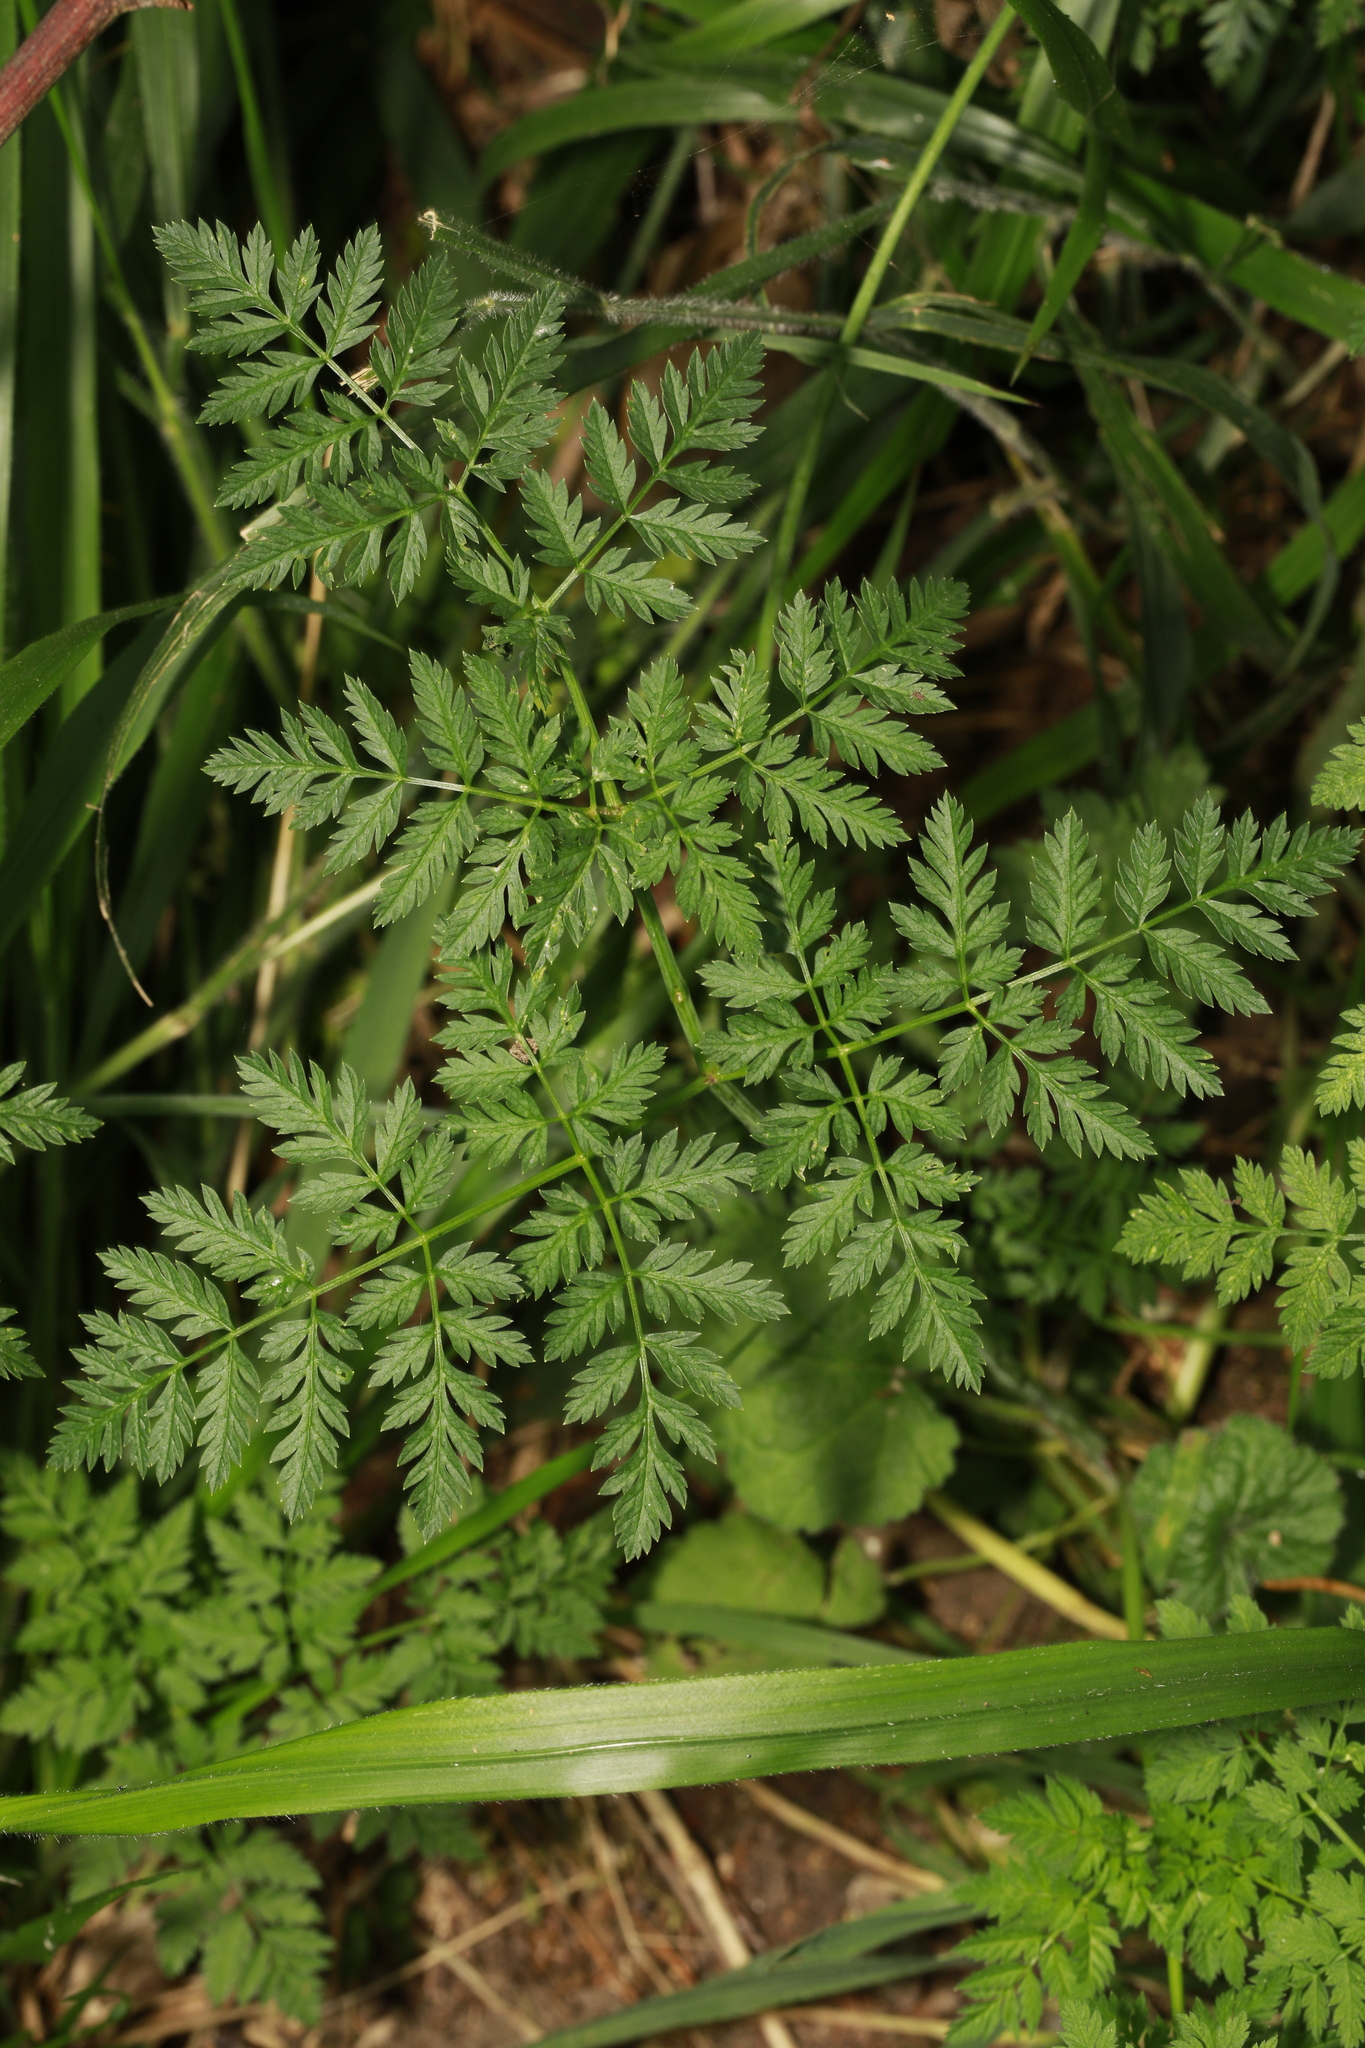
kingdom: Plantae
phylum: Tracheophyta
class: Magnoliopsida
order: Apiales
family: Apiaceae
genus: Anthriscus
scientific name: Anthriscus sylvestris
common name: Cow parsley
